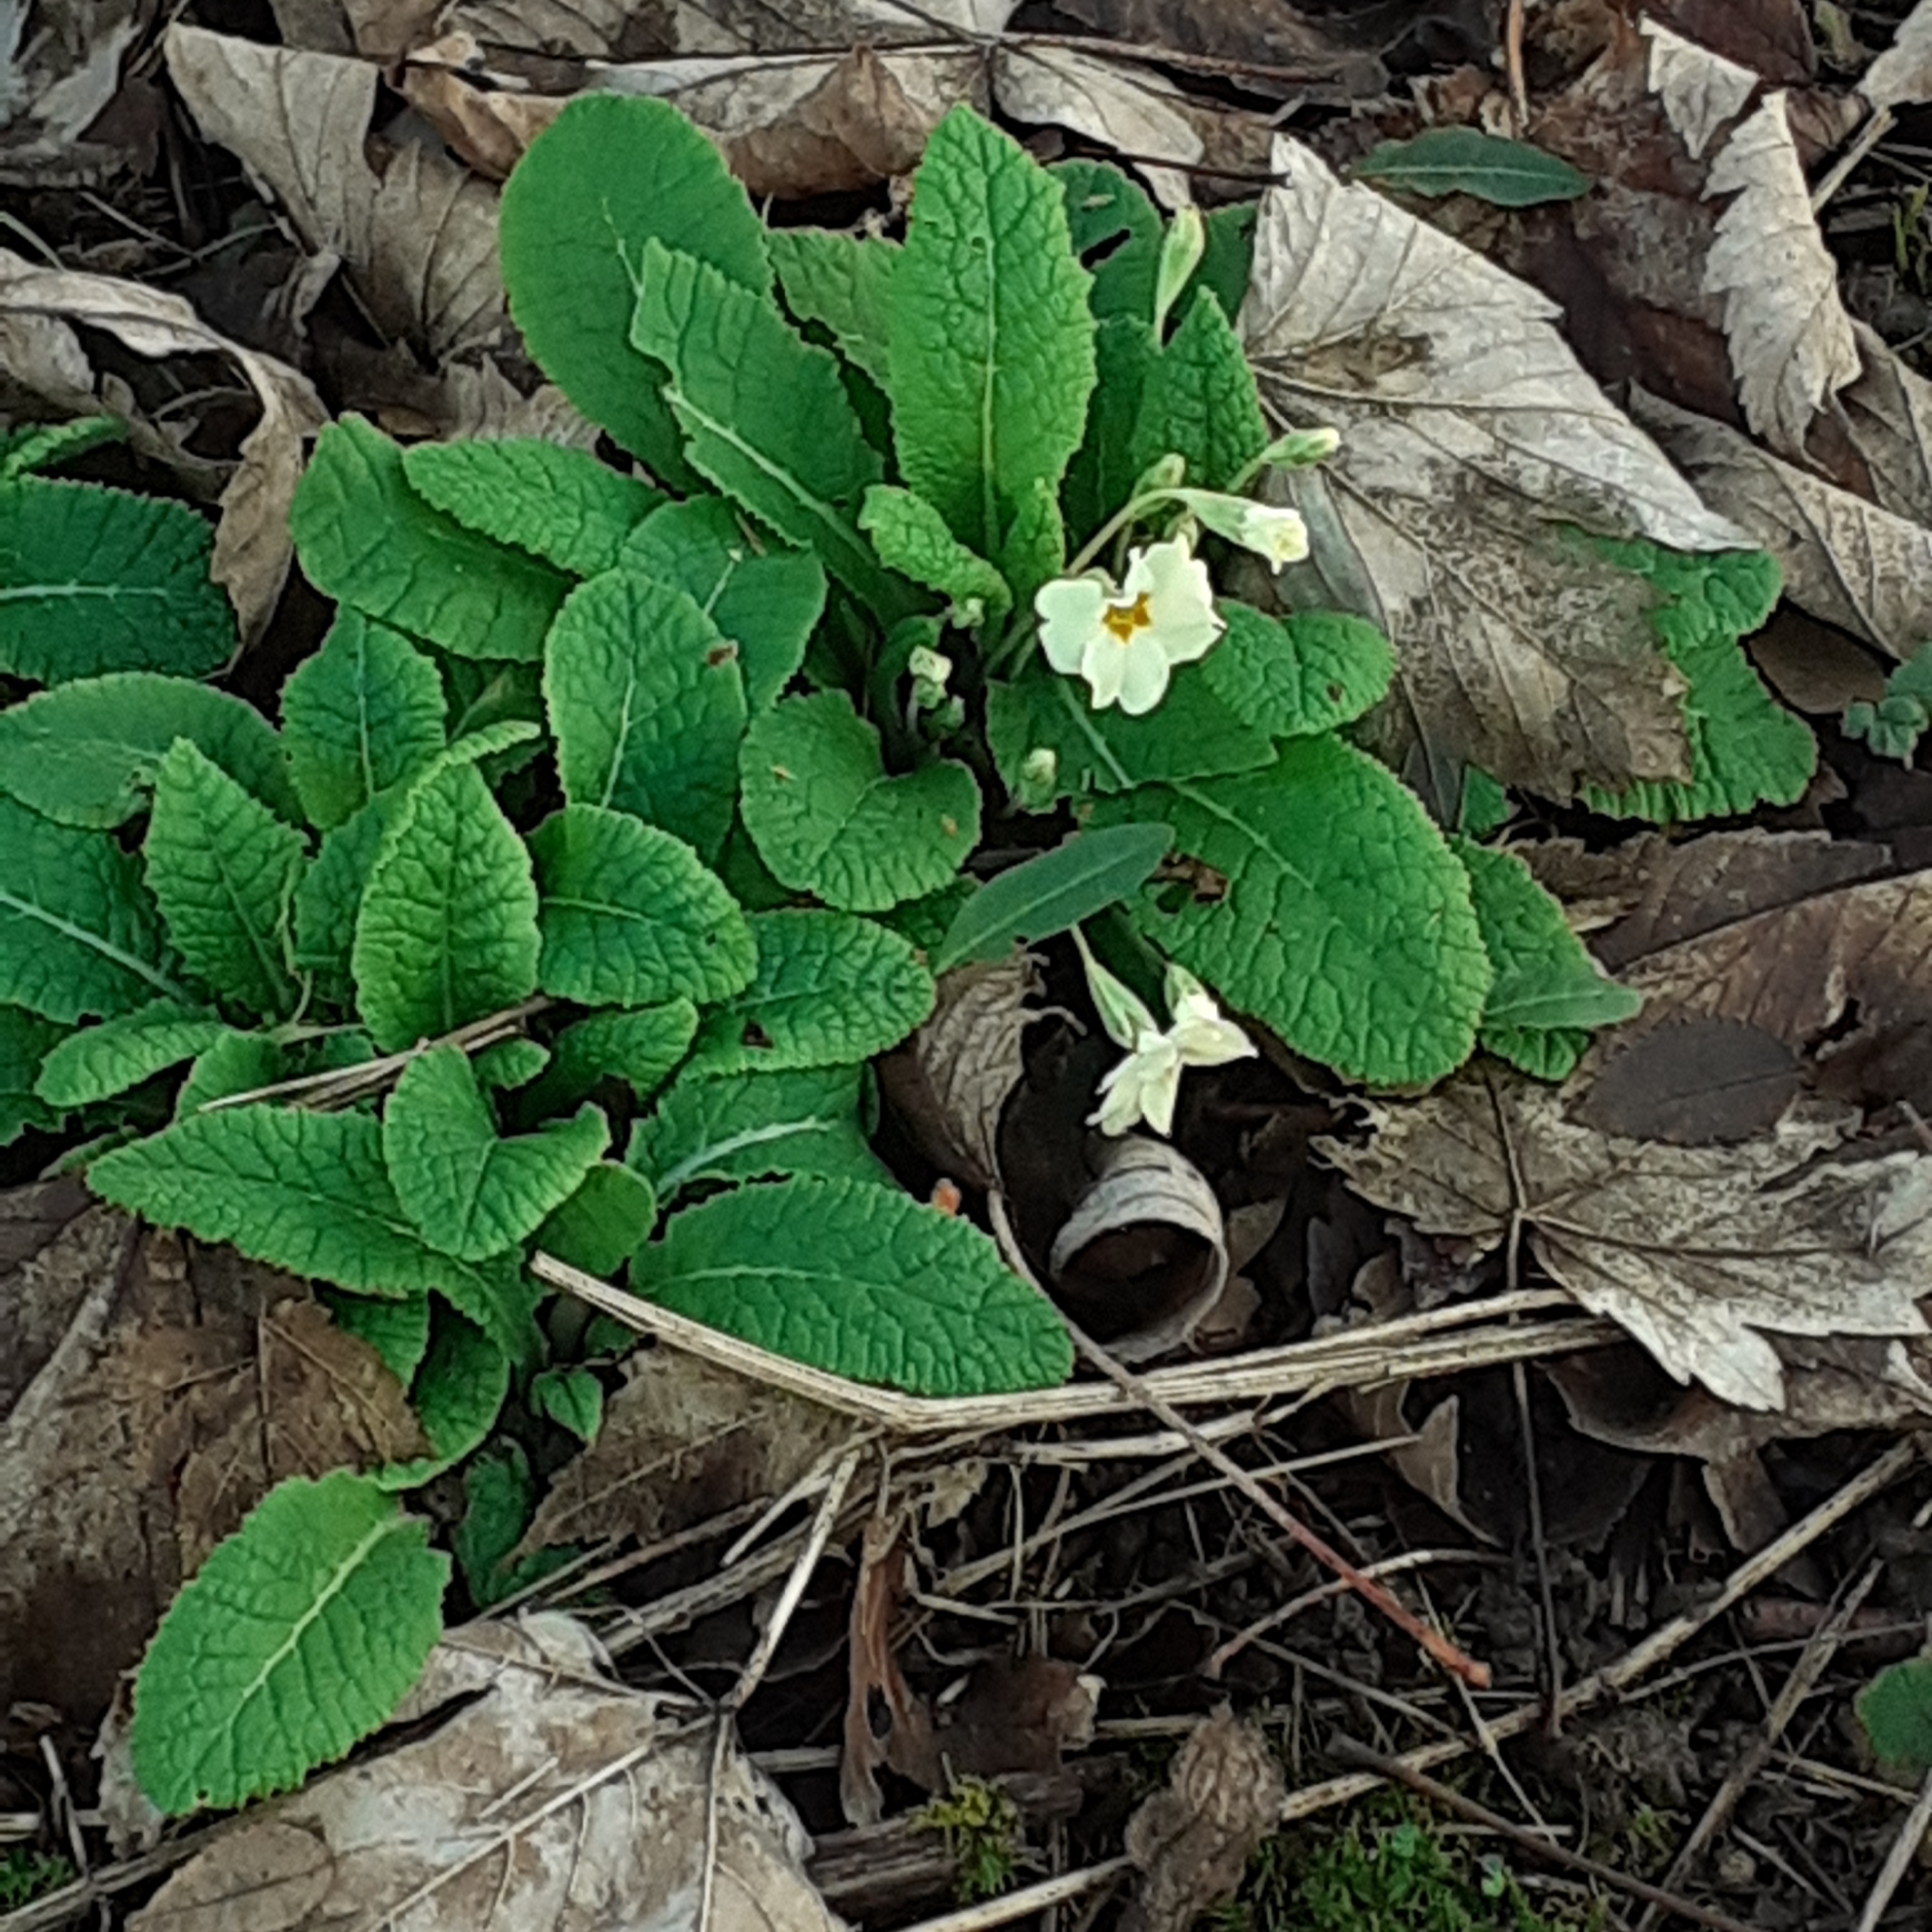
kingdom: Plantae
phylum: Tracheophyta
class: Magnoliopsida
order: Ericales
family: Primulaceae
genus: Primula
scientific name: Primula vulgaris
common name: Primrose
